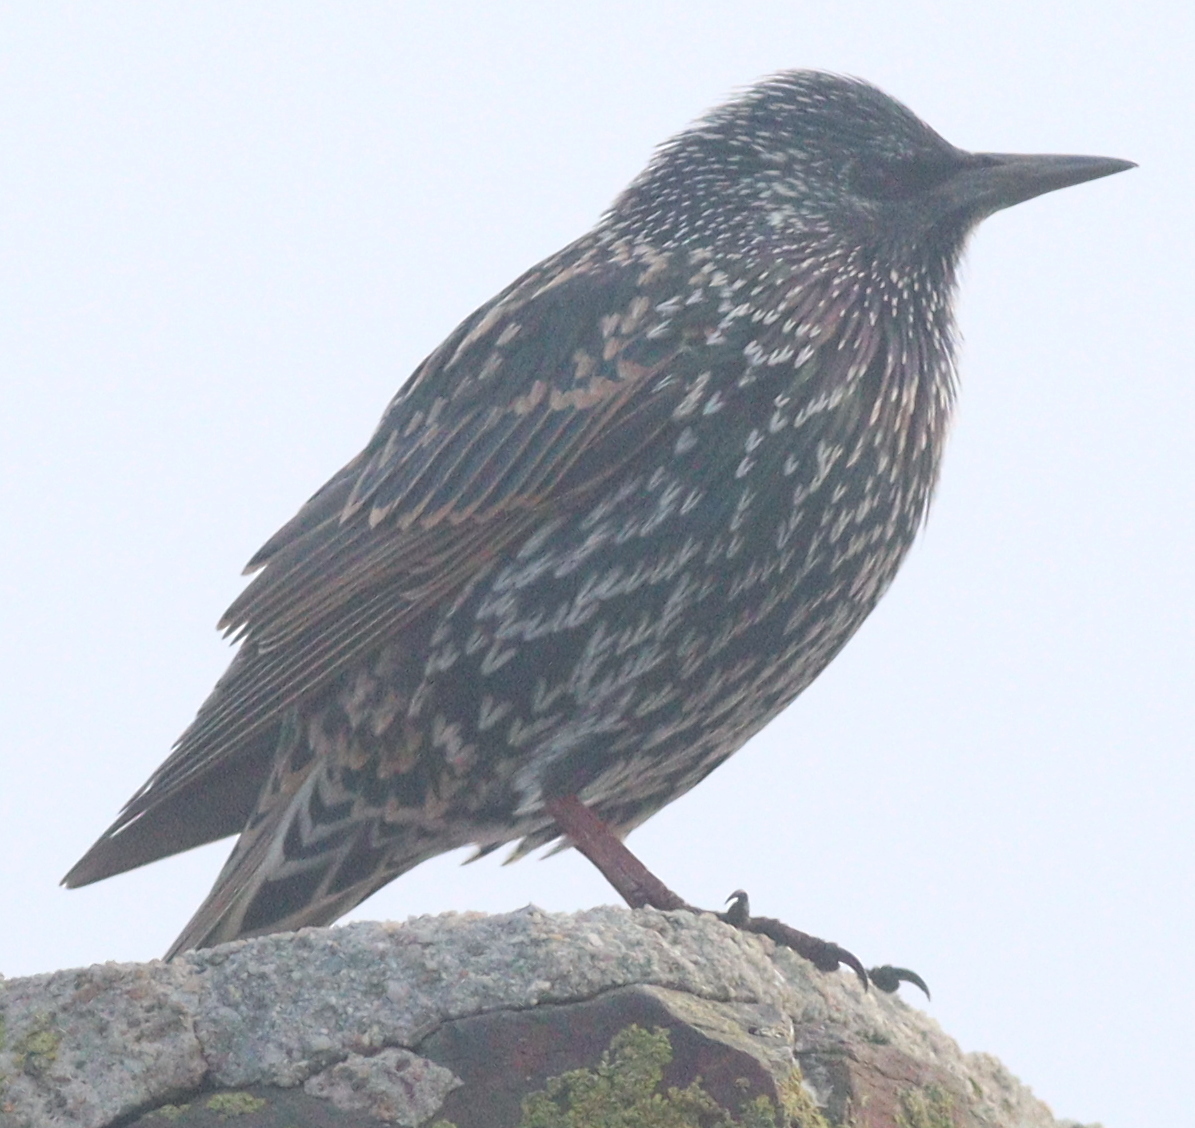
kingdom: Animalia
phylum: Chordata
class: Aves
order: Passeriformes
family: Sturnidae
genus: Sturnus
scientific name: Sturnus vulgaris
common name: Common starling
